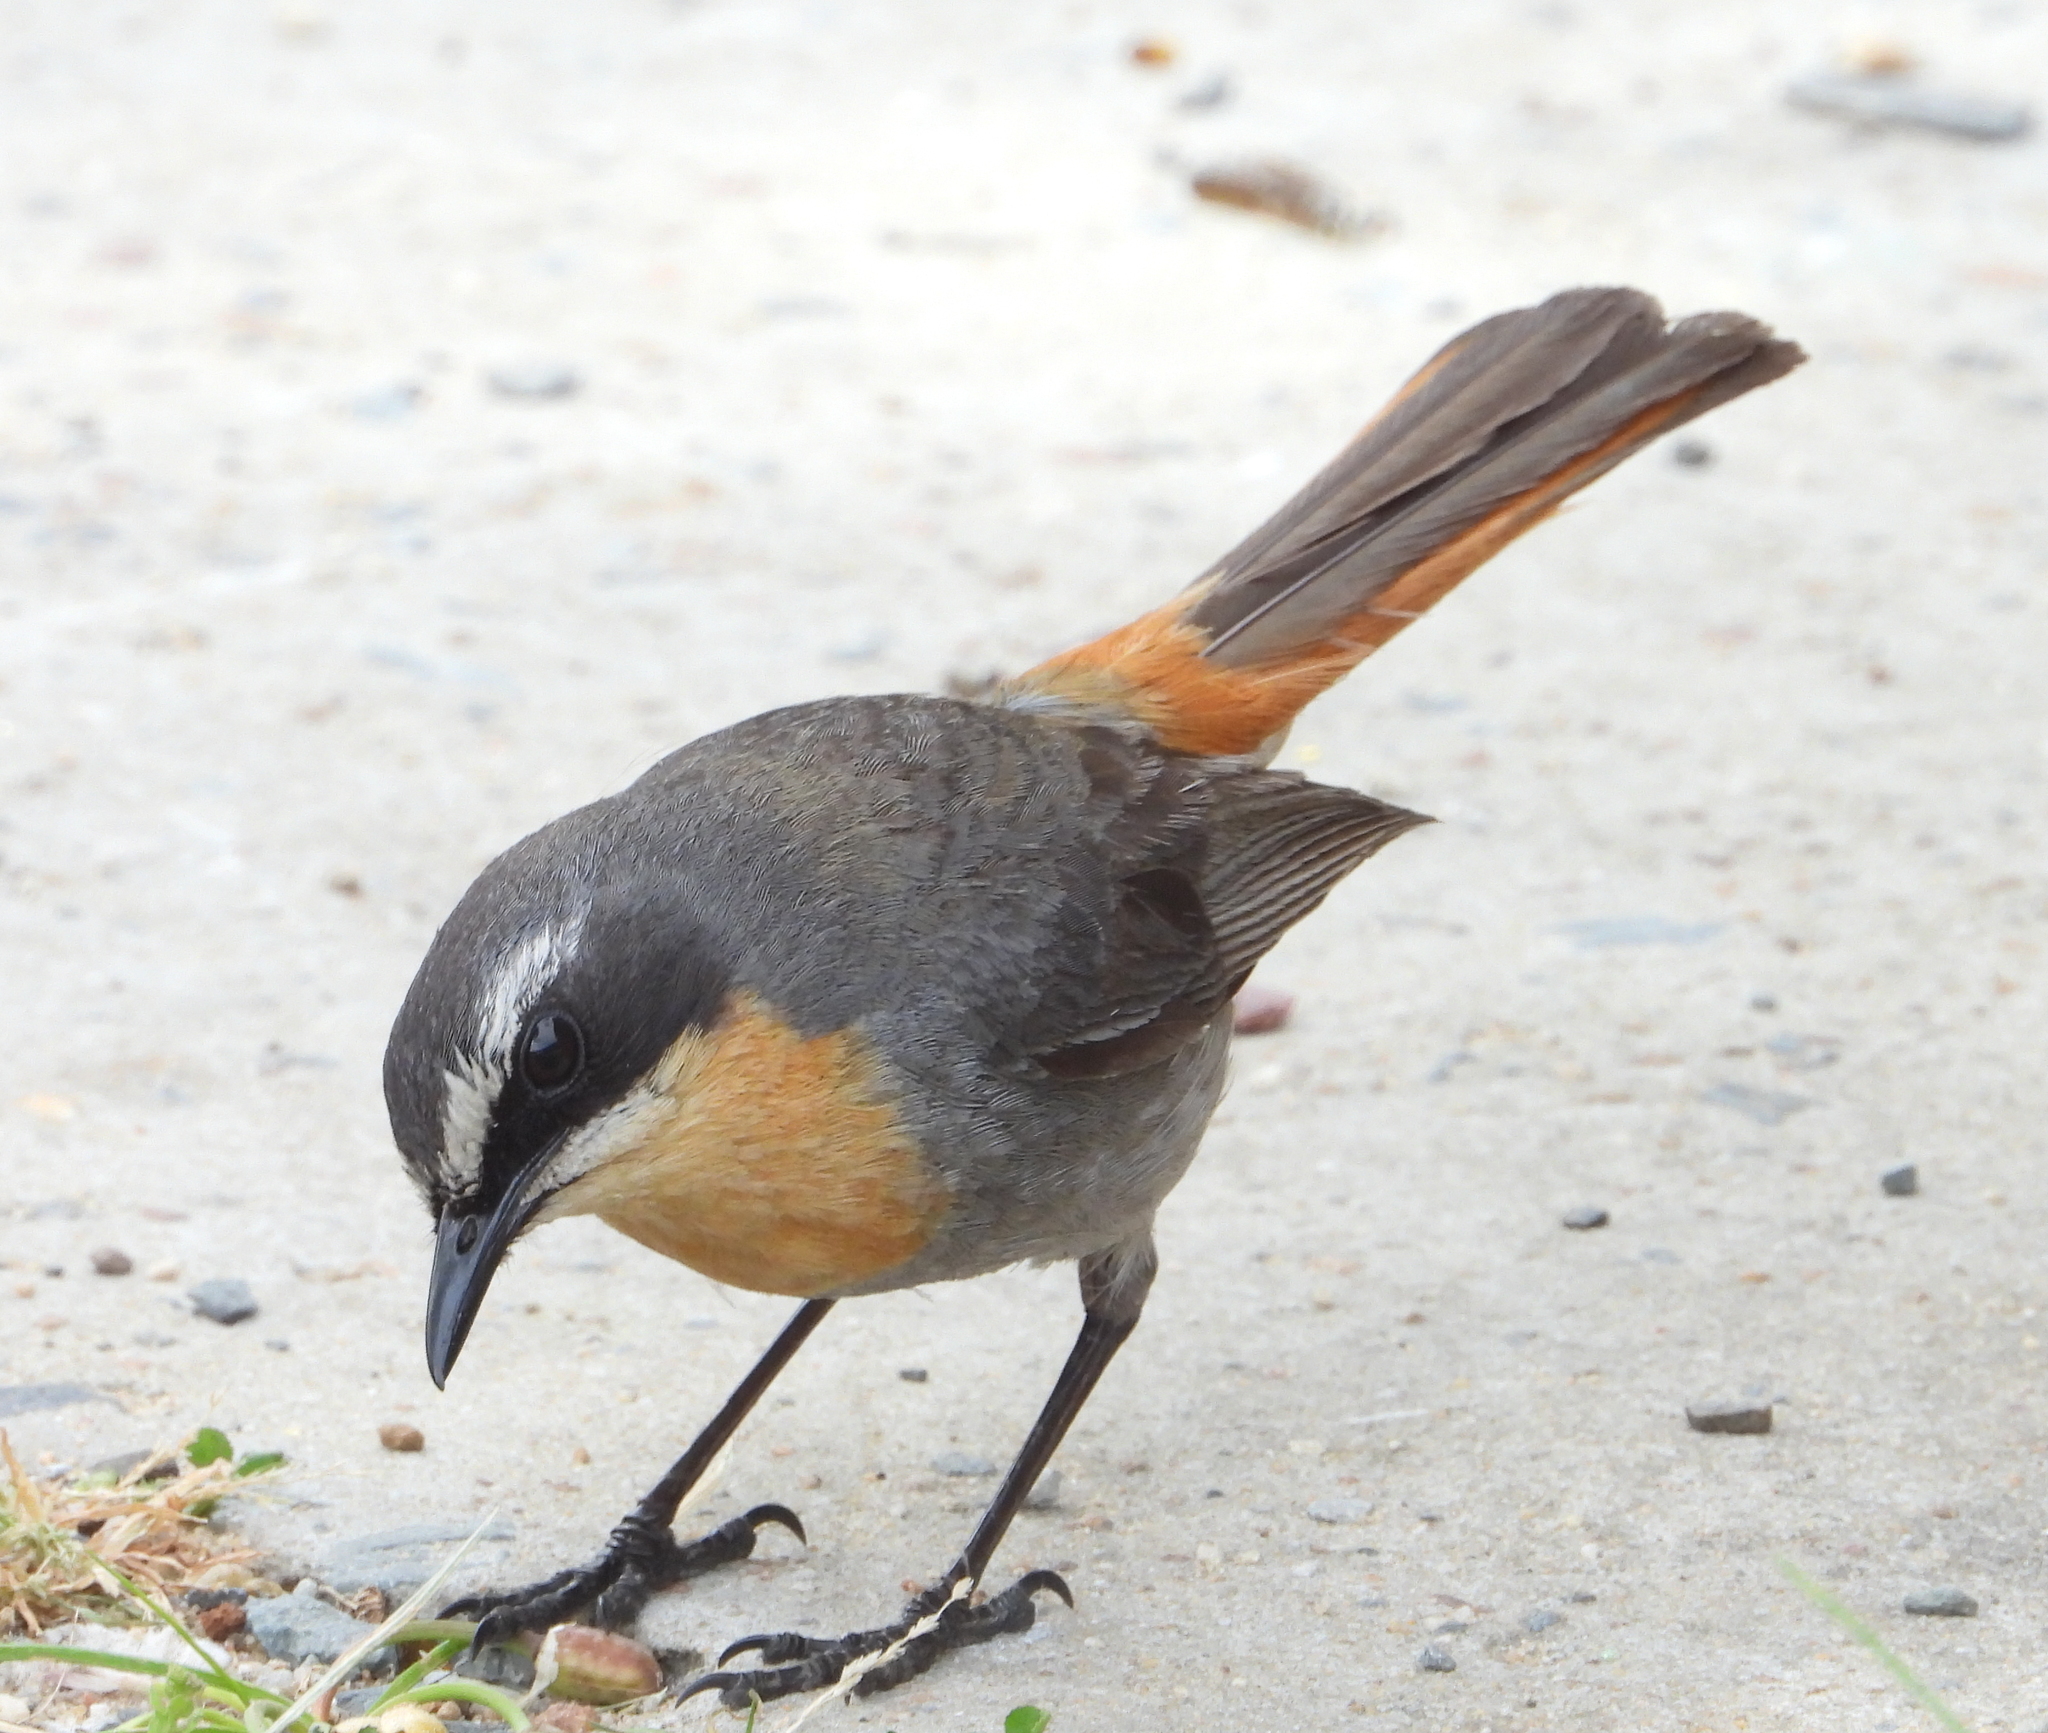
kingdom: Animalia
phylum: Chordata
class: Aves
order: Passeriformes
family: Muscicapidae
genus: Cossypha
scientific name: Cossypha caffra
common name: Cape robin-chat
